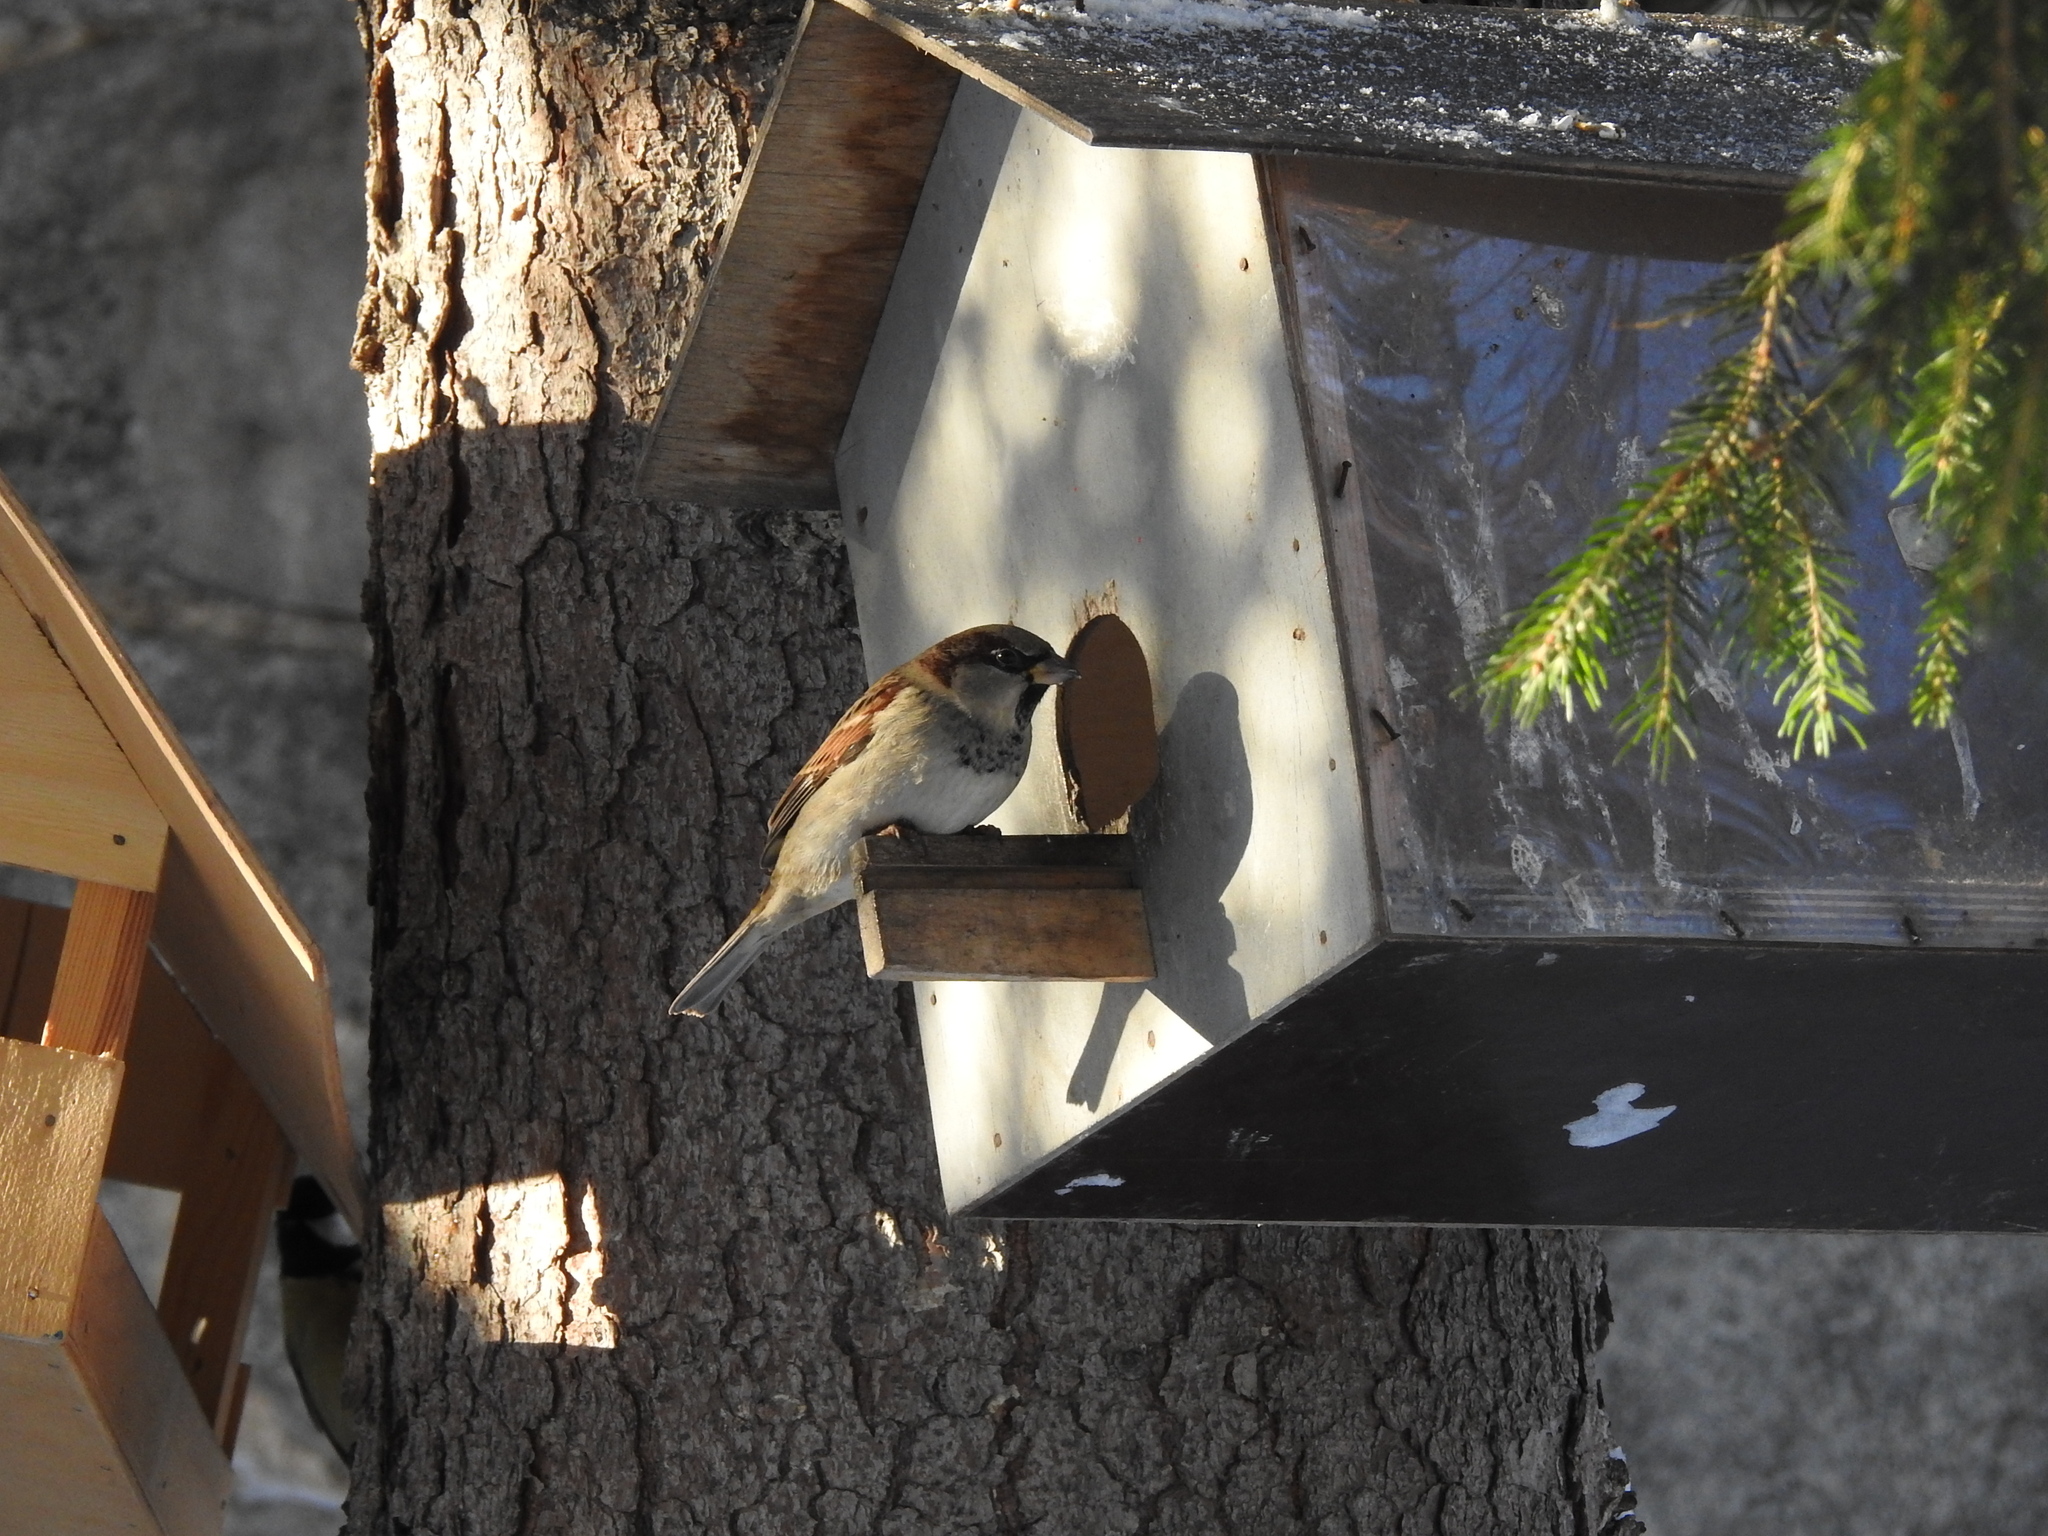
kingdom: Animalia
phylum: Chordata
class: Aves
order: Passeriformes
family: Passeridae
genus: Passer
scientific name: Passer domesticus
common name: House sparrow
